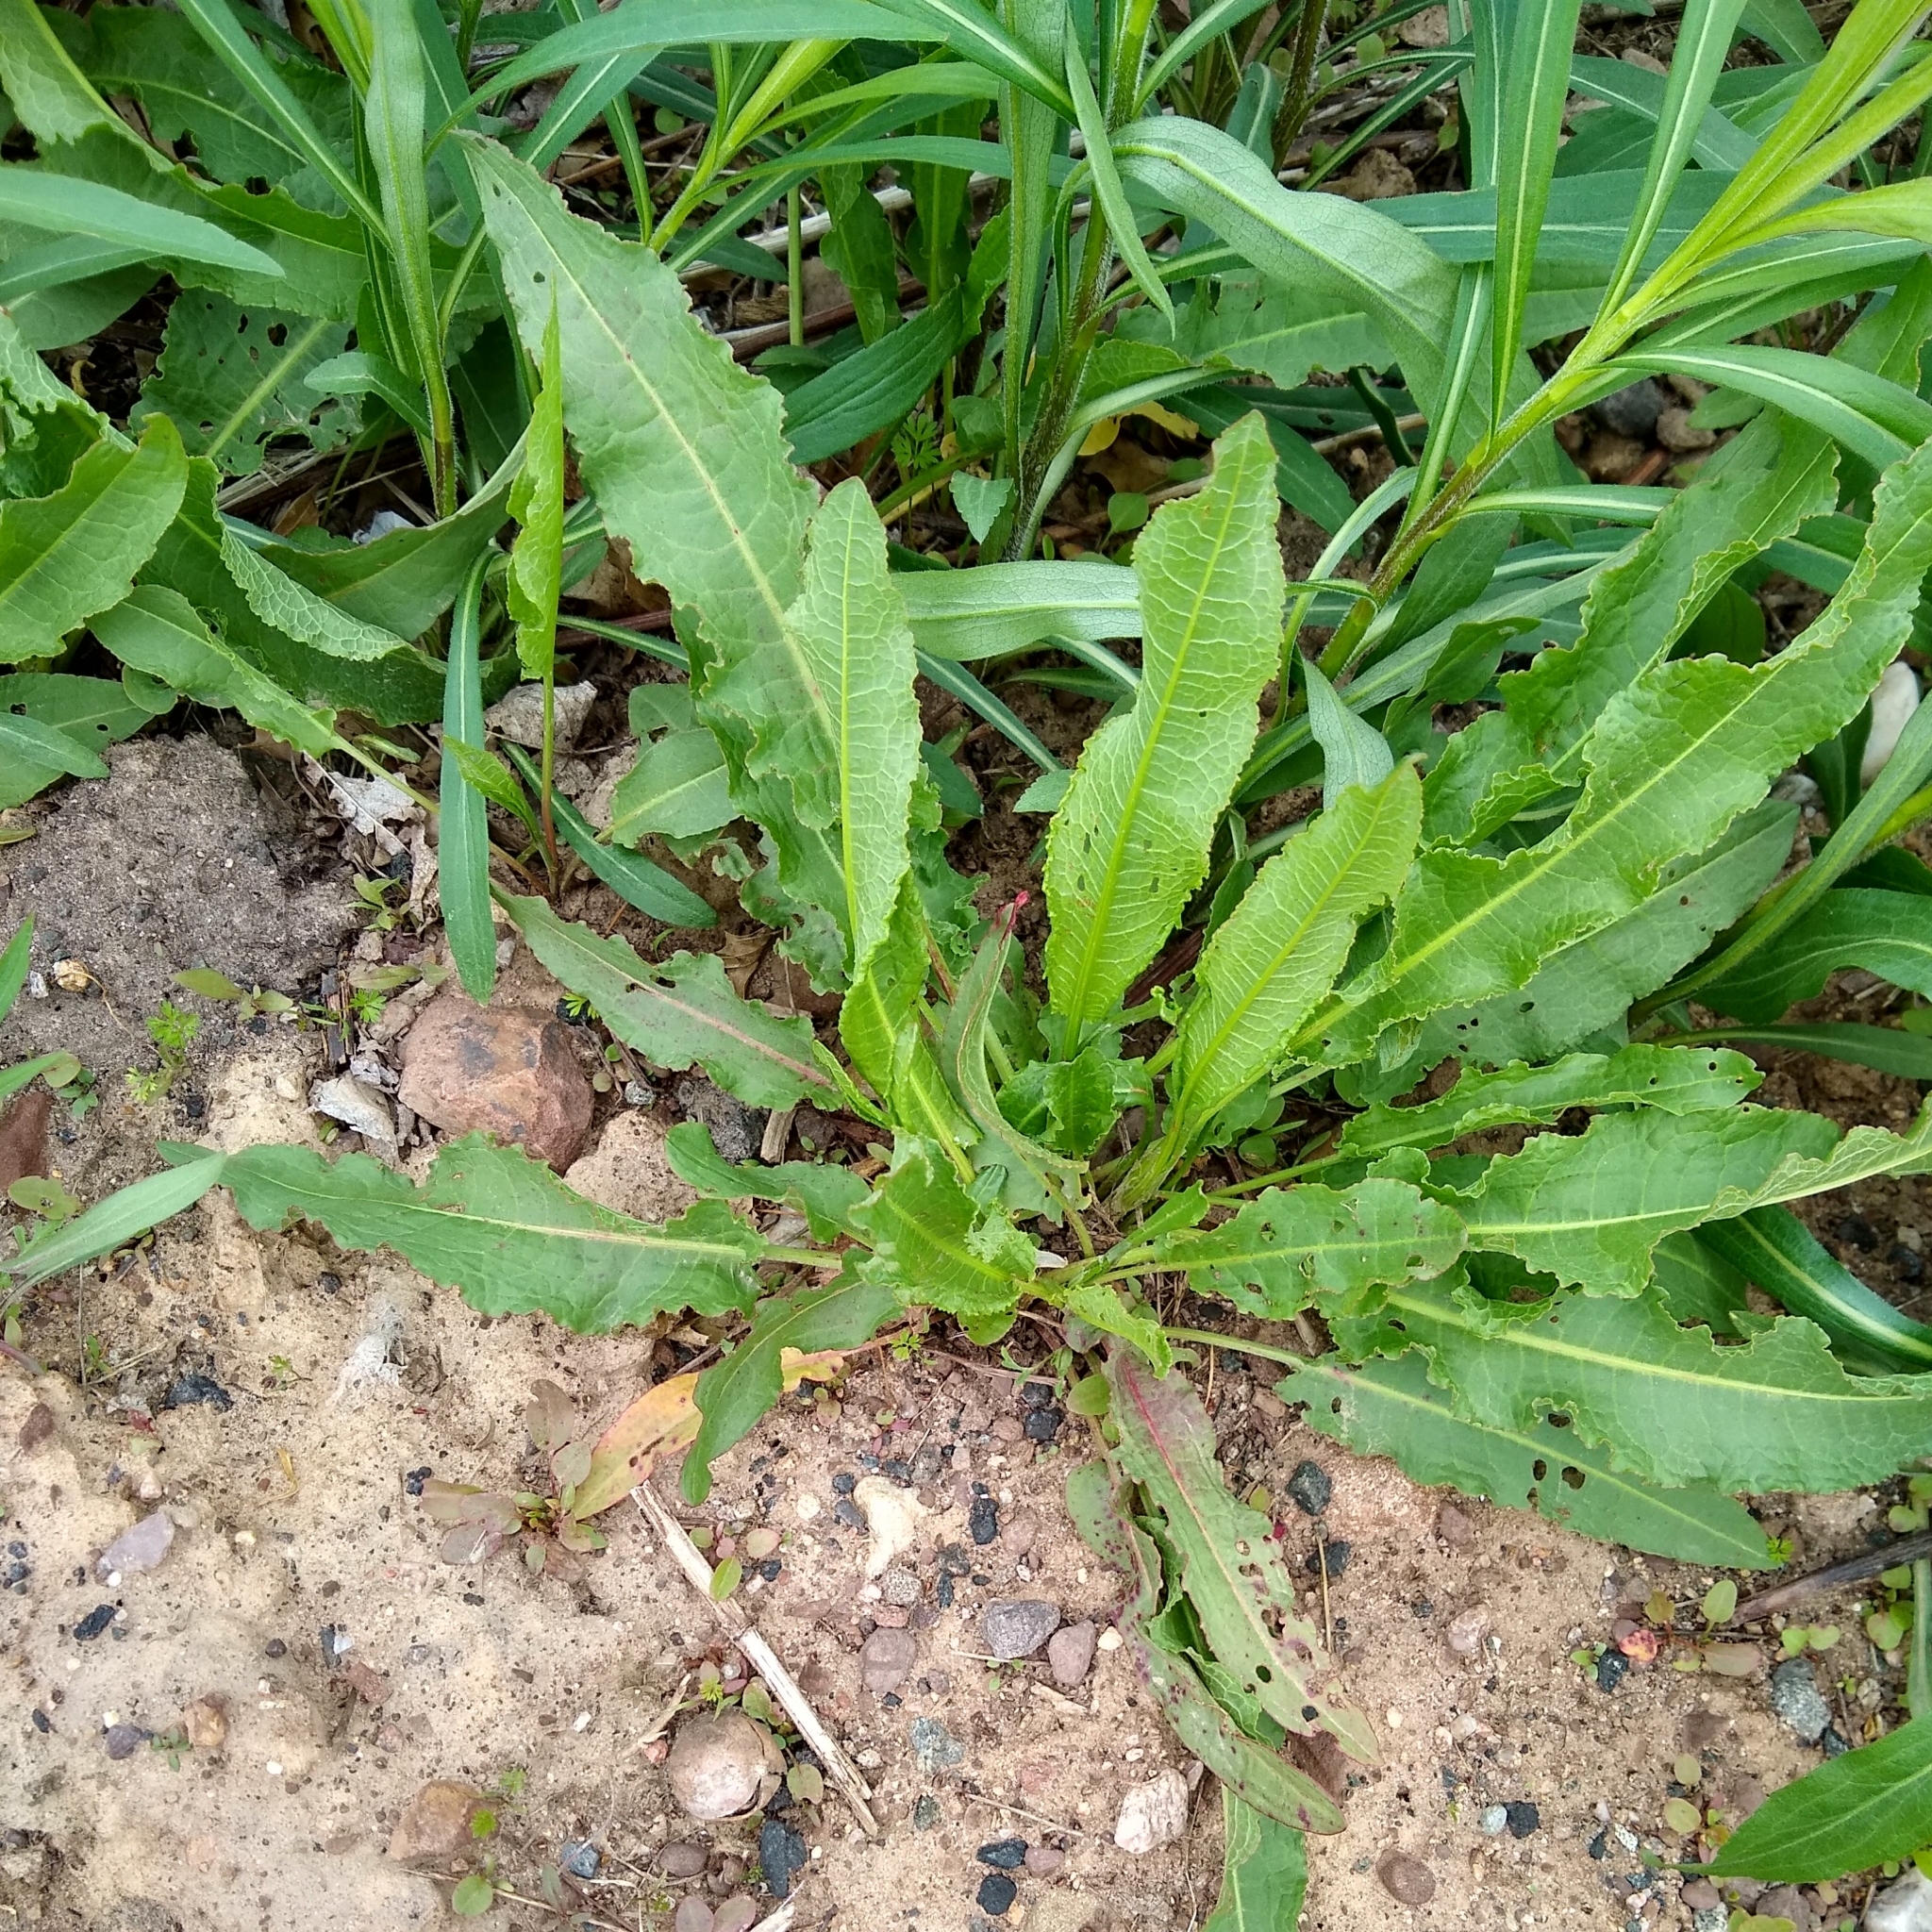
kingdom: Plantae
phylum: Tracheophyta
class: Magnoliopsida
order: Caryophyllales
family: Polygonaceae
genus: Rumex
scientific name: Rumex crispus
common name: Curled dock
